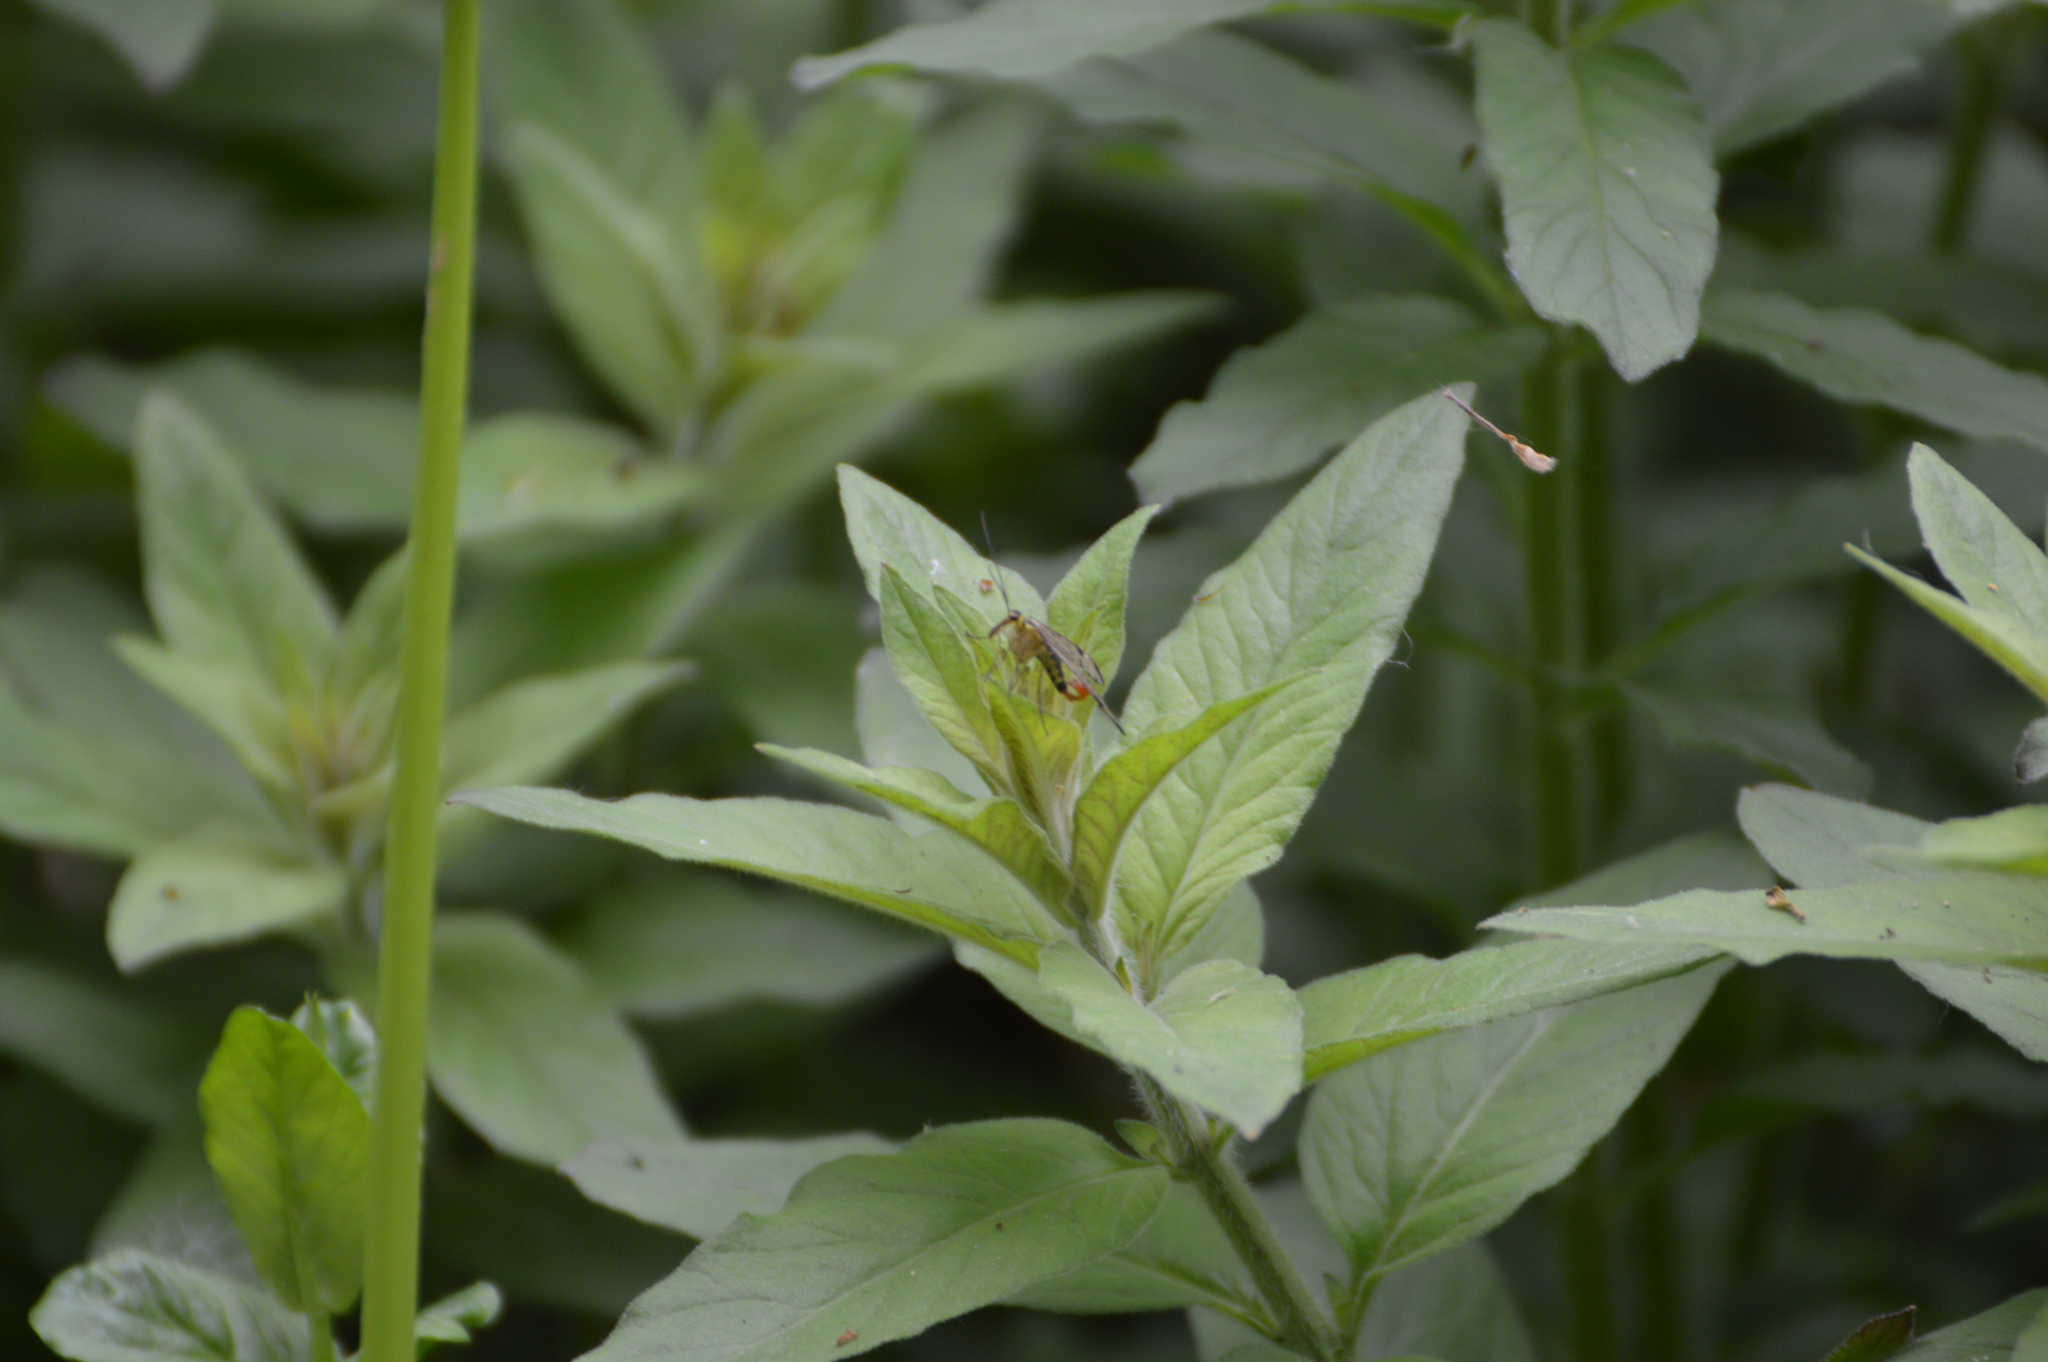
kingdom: Plantae
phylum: Tracheophyta
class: Magnoliopsida
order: Ericales
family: Primulaceae
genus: Lysimachia
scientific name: Lysimachia punctata
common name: Dotted loosestrife
